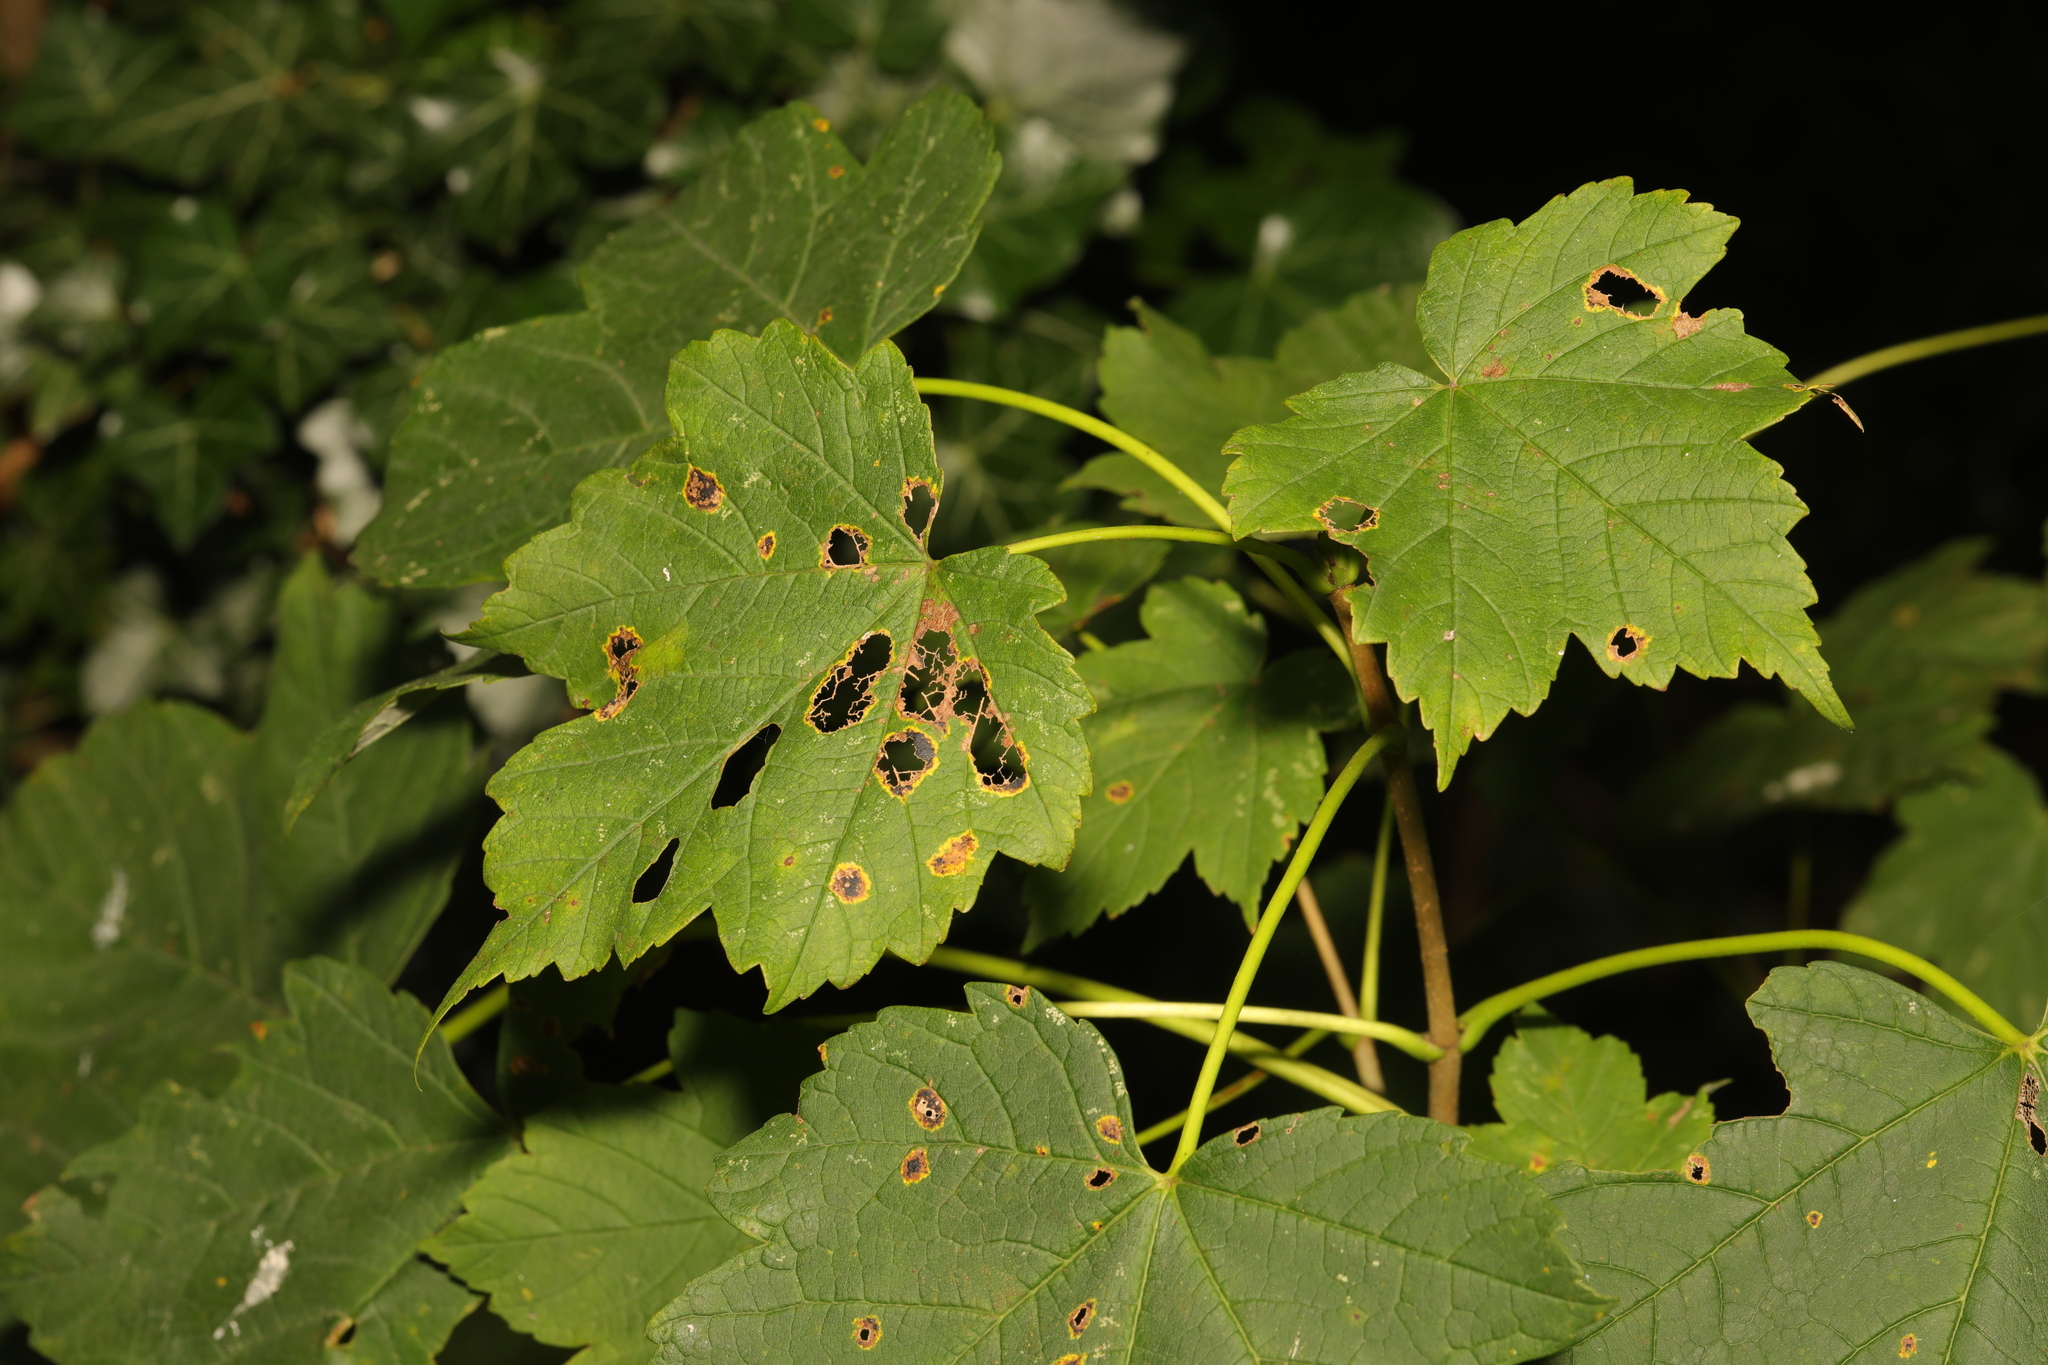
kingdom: Plantae
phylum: Tracheophyta
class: Magnoliopsida
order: Sapindales
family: Sapindaceae
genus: Acer
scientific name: Acer pseudoplatanus
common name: Sycamore
